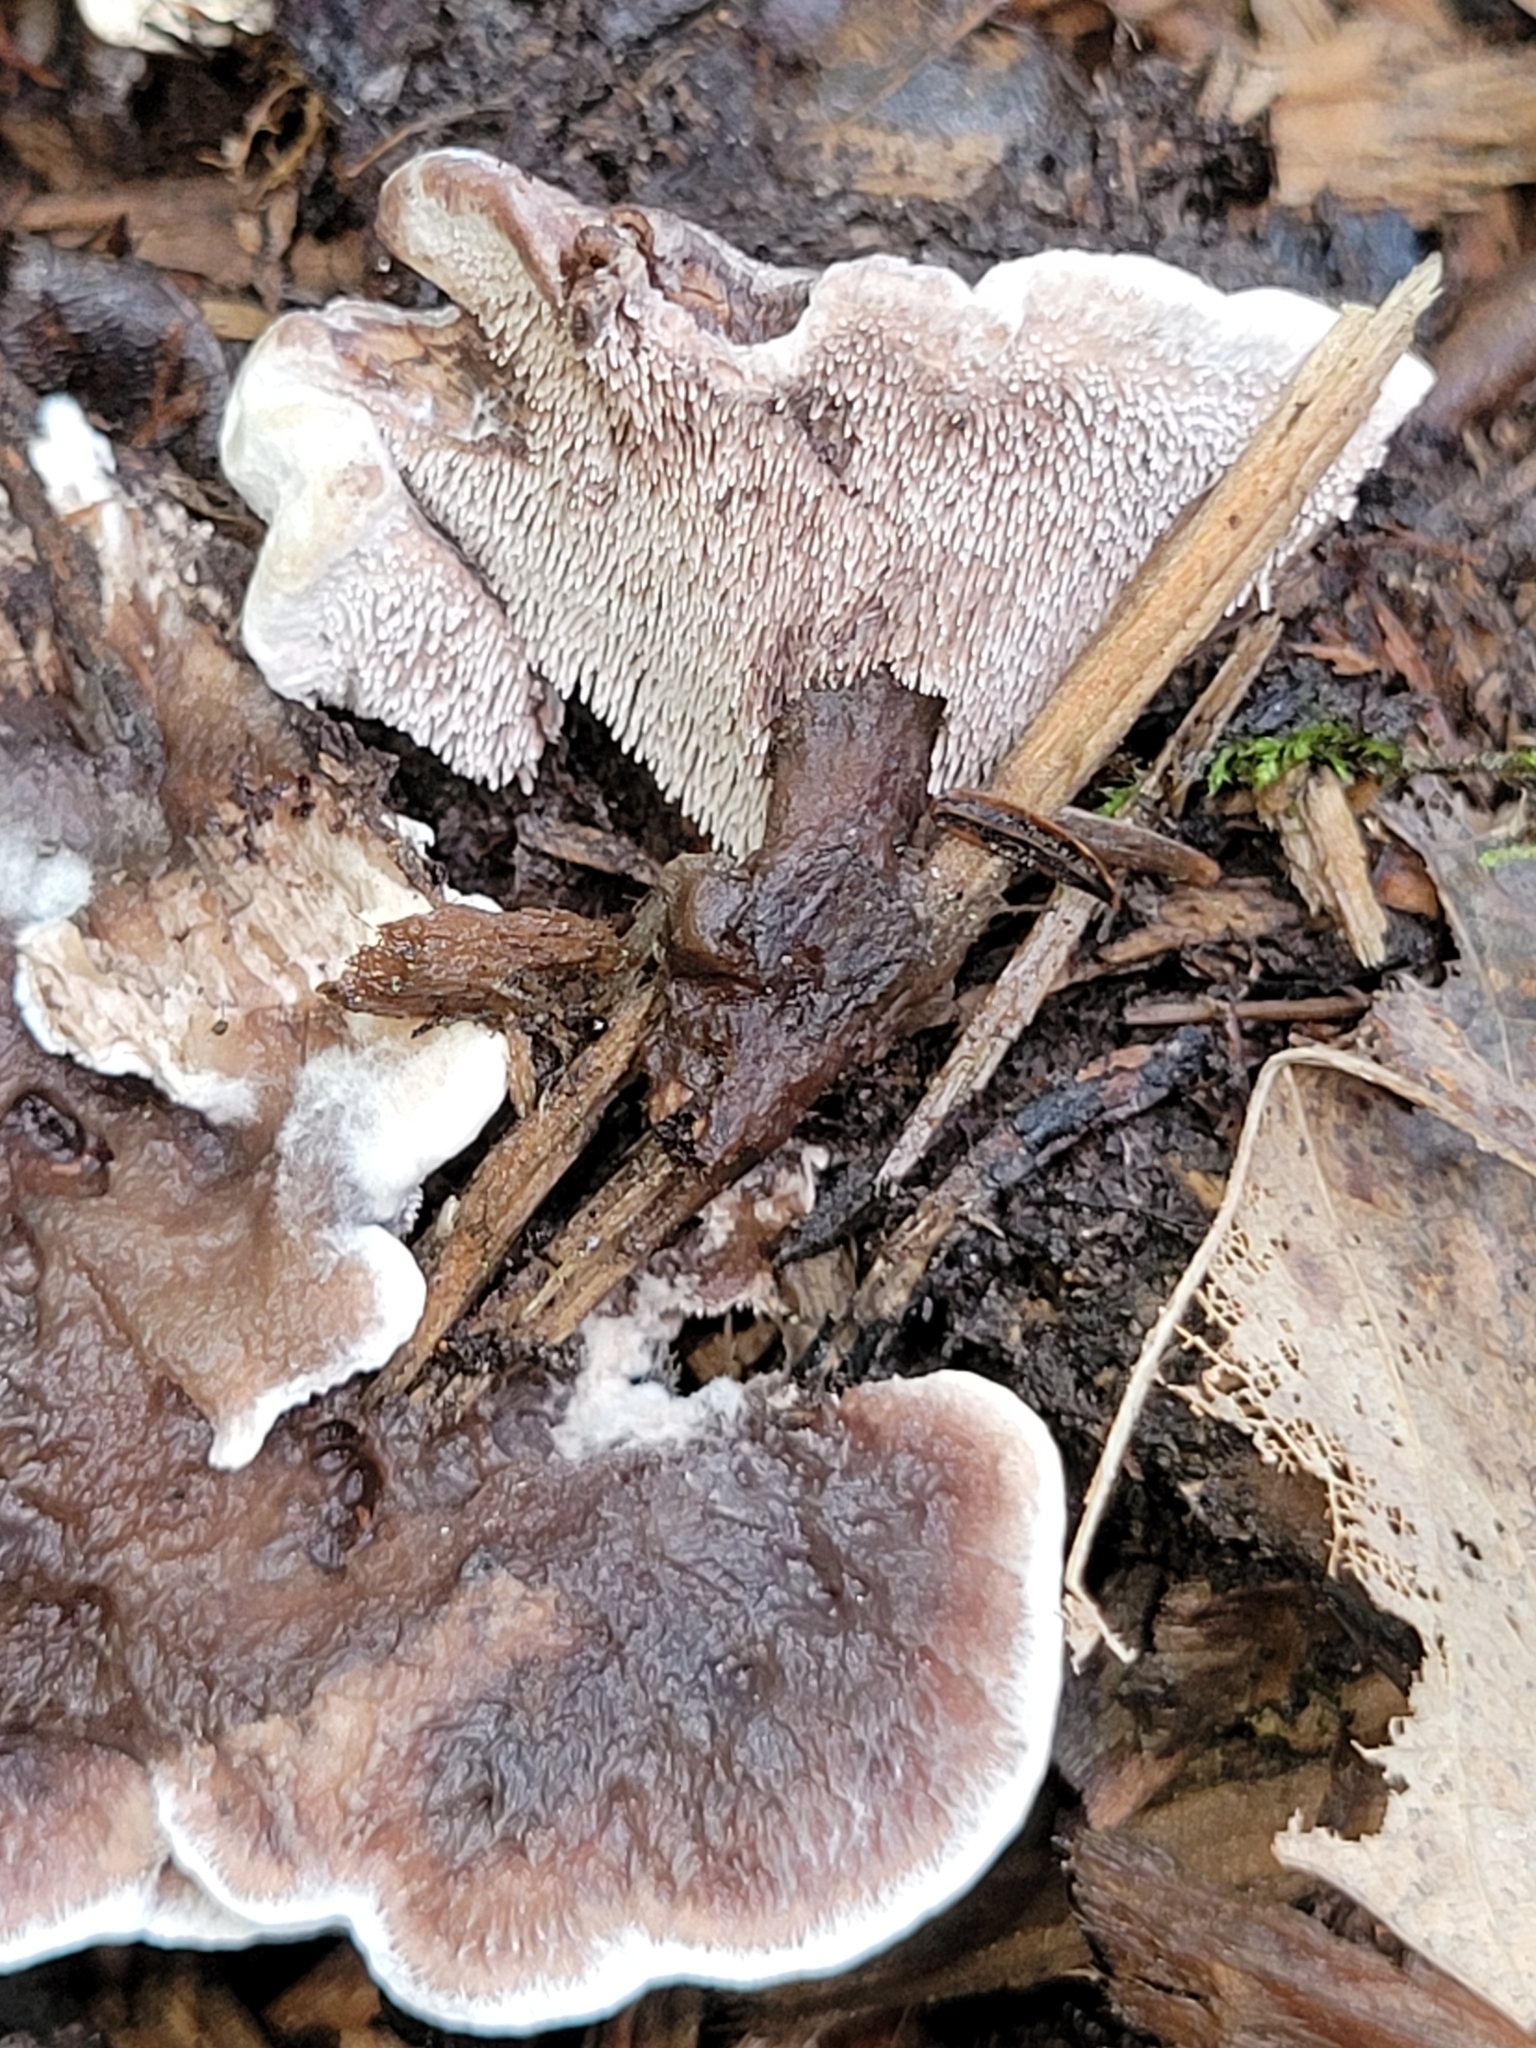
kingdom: Fungi
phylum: Basidiomycota
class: Agaricomycetes
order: Thelephorales
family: Bankeraceae
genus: Hydnellum
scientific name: Hydnellum scrobiculatum
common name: Ridged tooth
